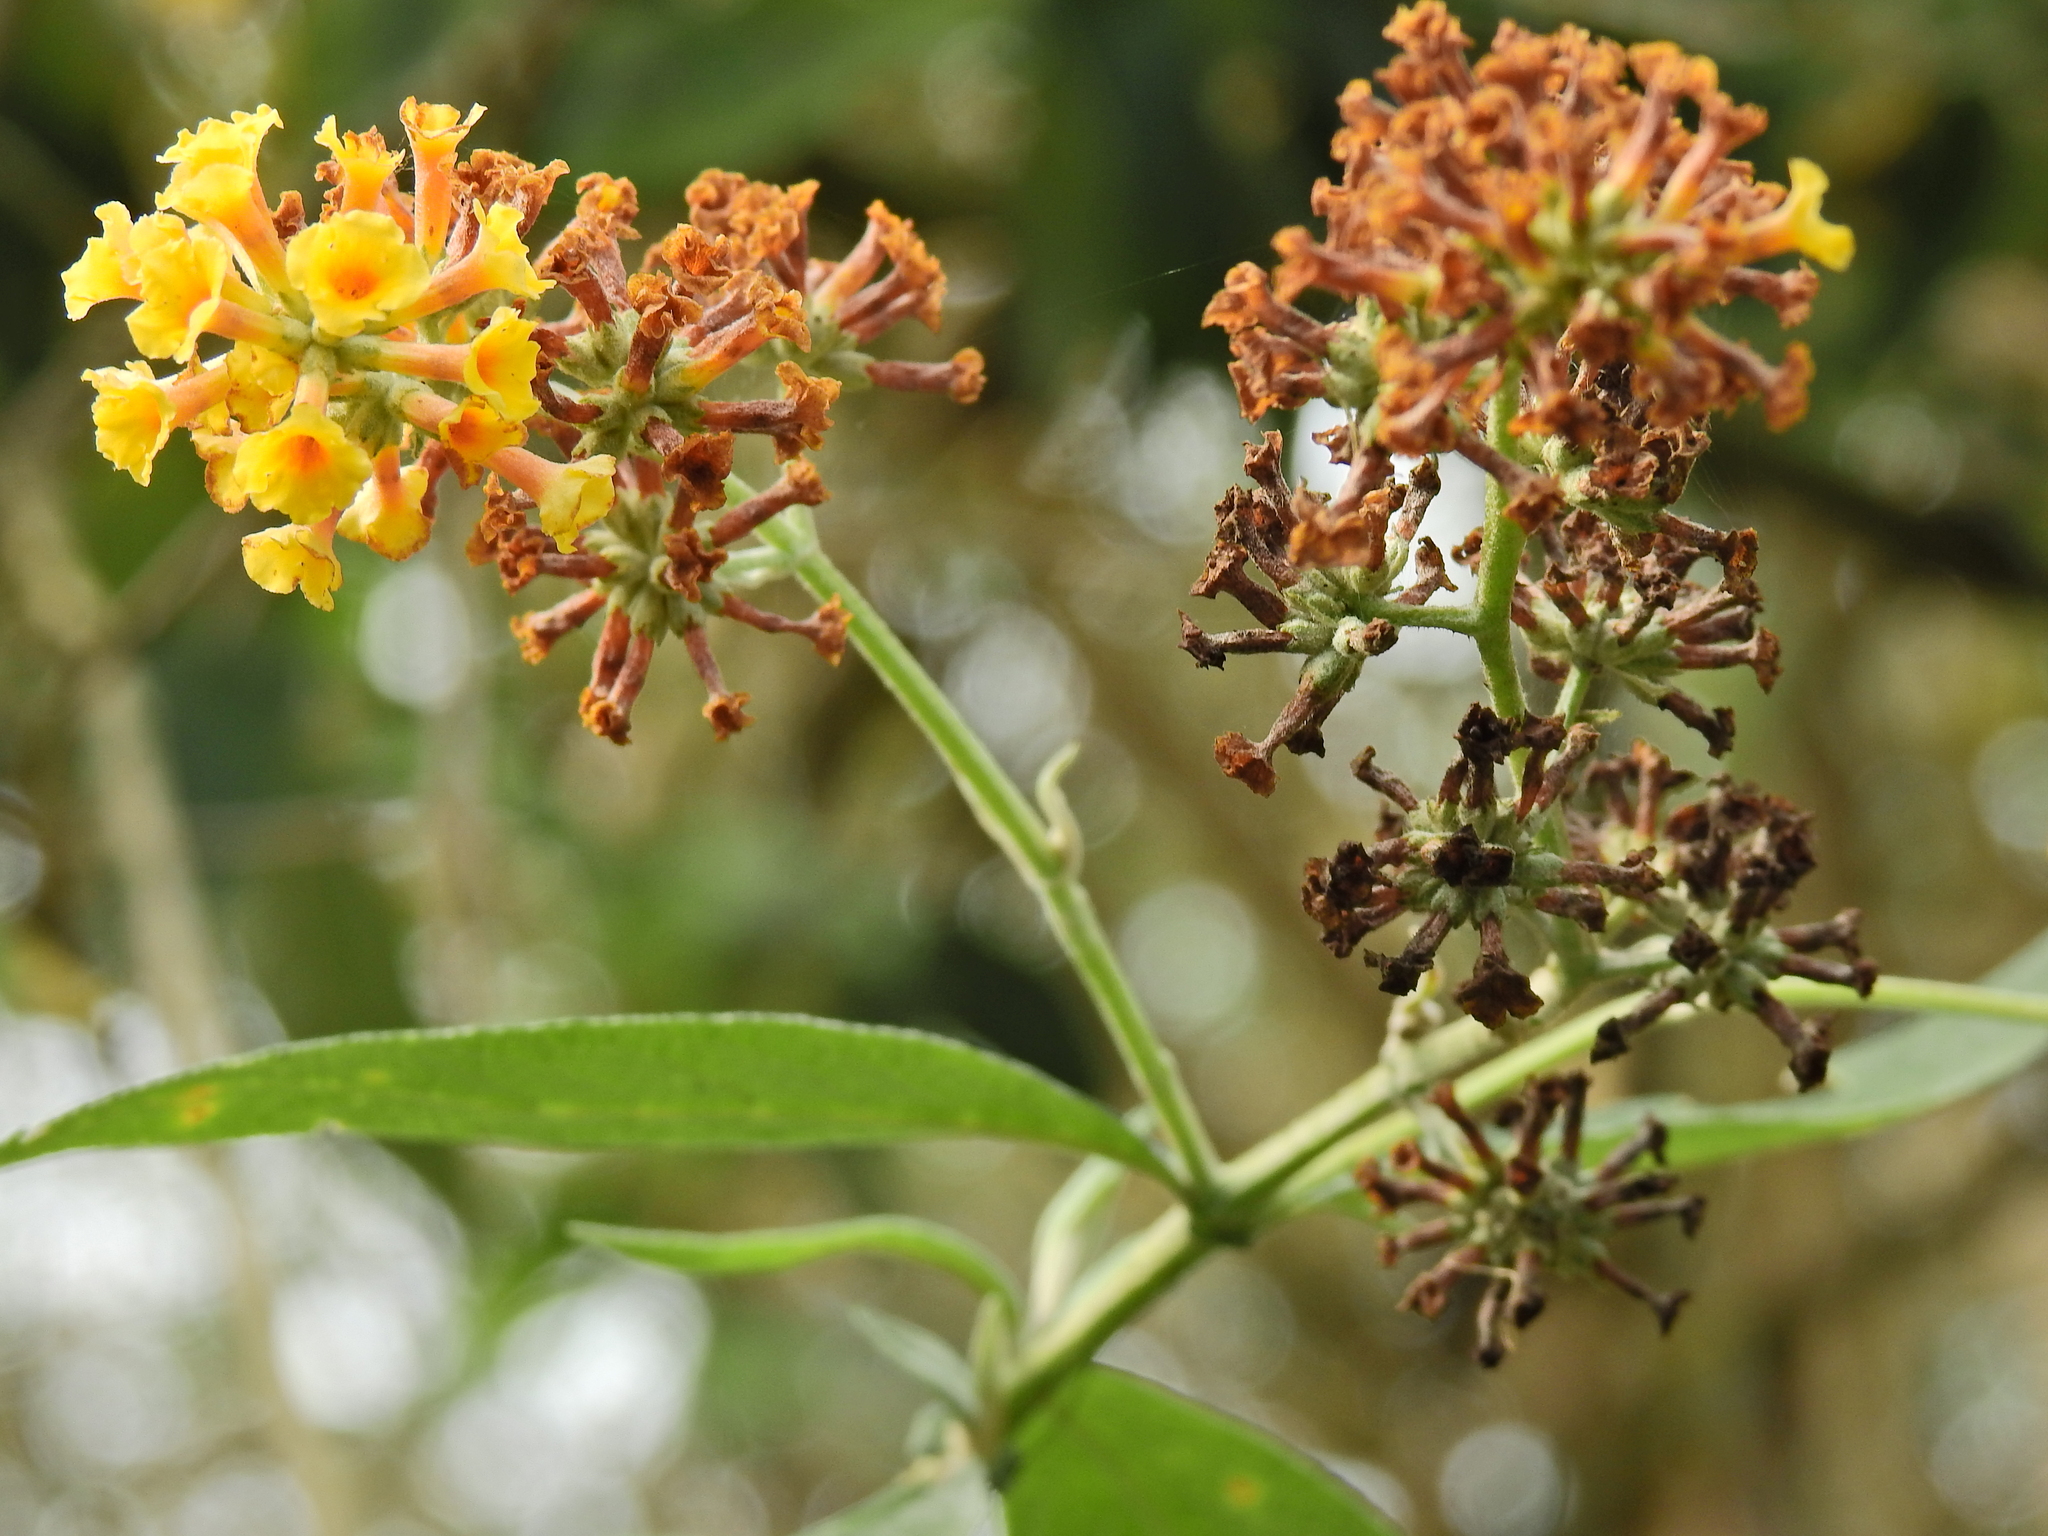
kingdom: Plantae
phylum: Tracheophyta
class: Magnoliopsida
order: Lamiales
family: Scrophulariaceae
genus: Buddleja
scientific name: Buddleja weyeriana
